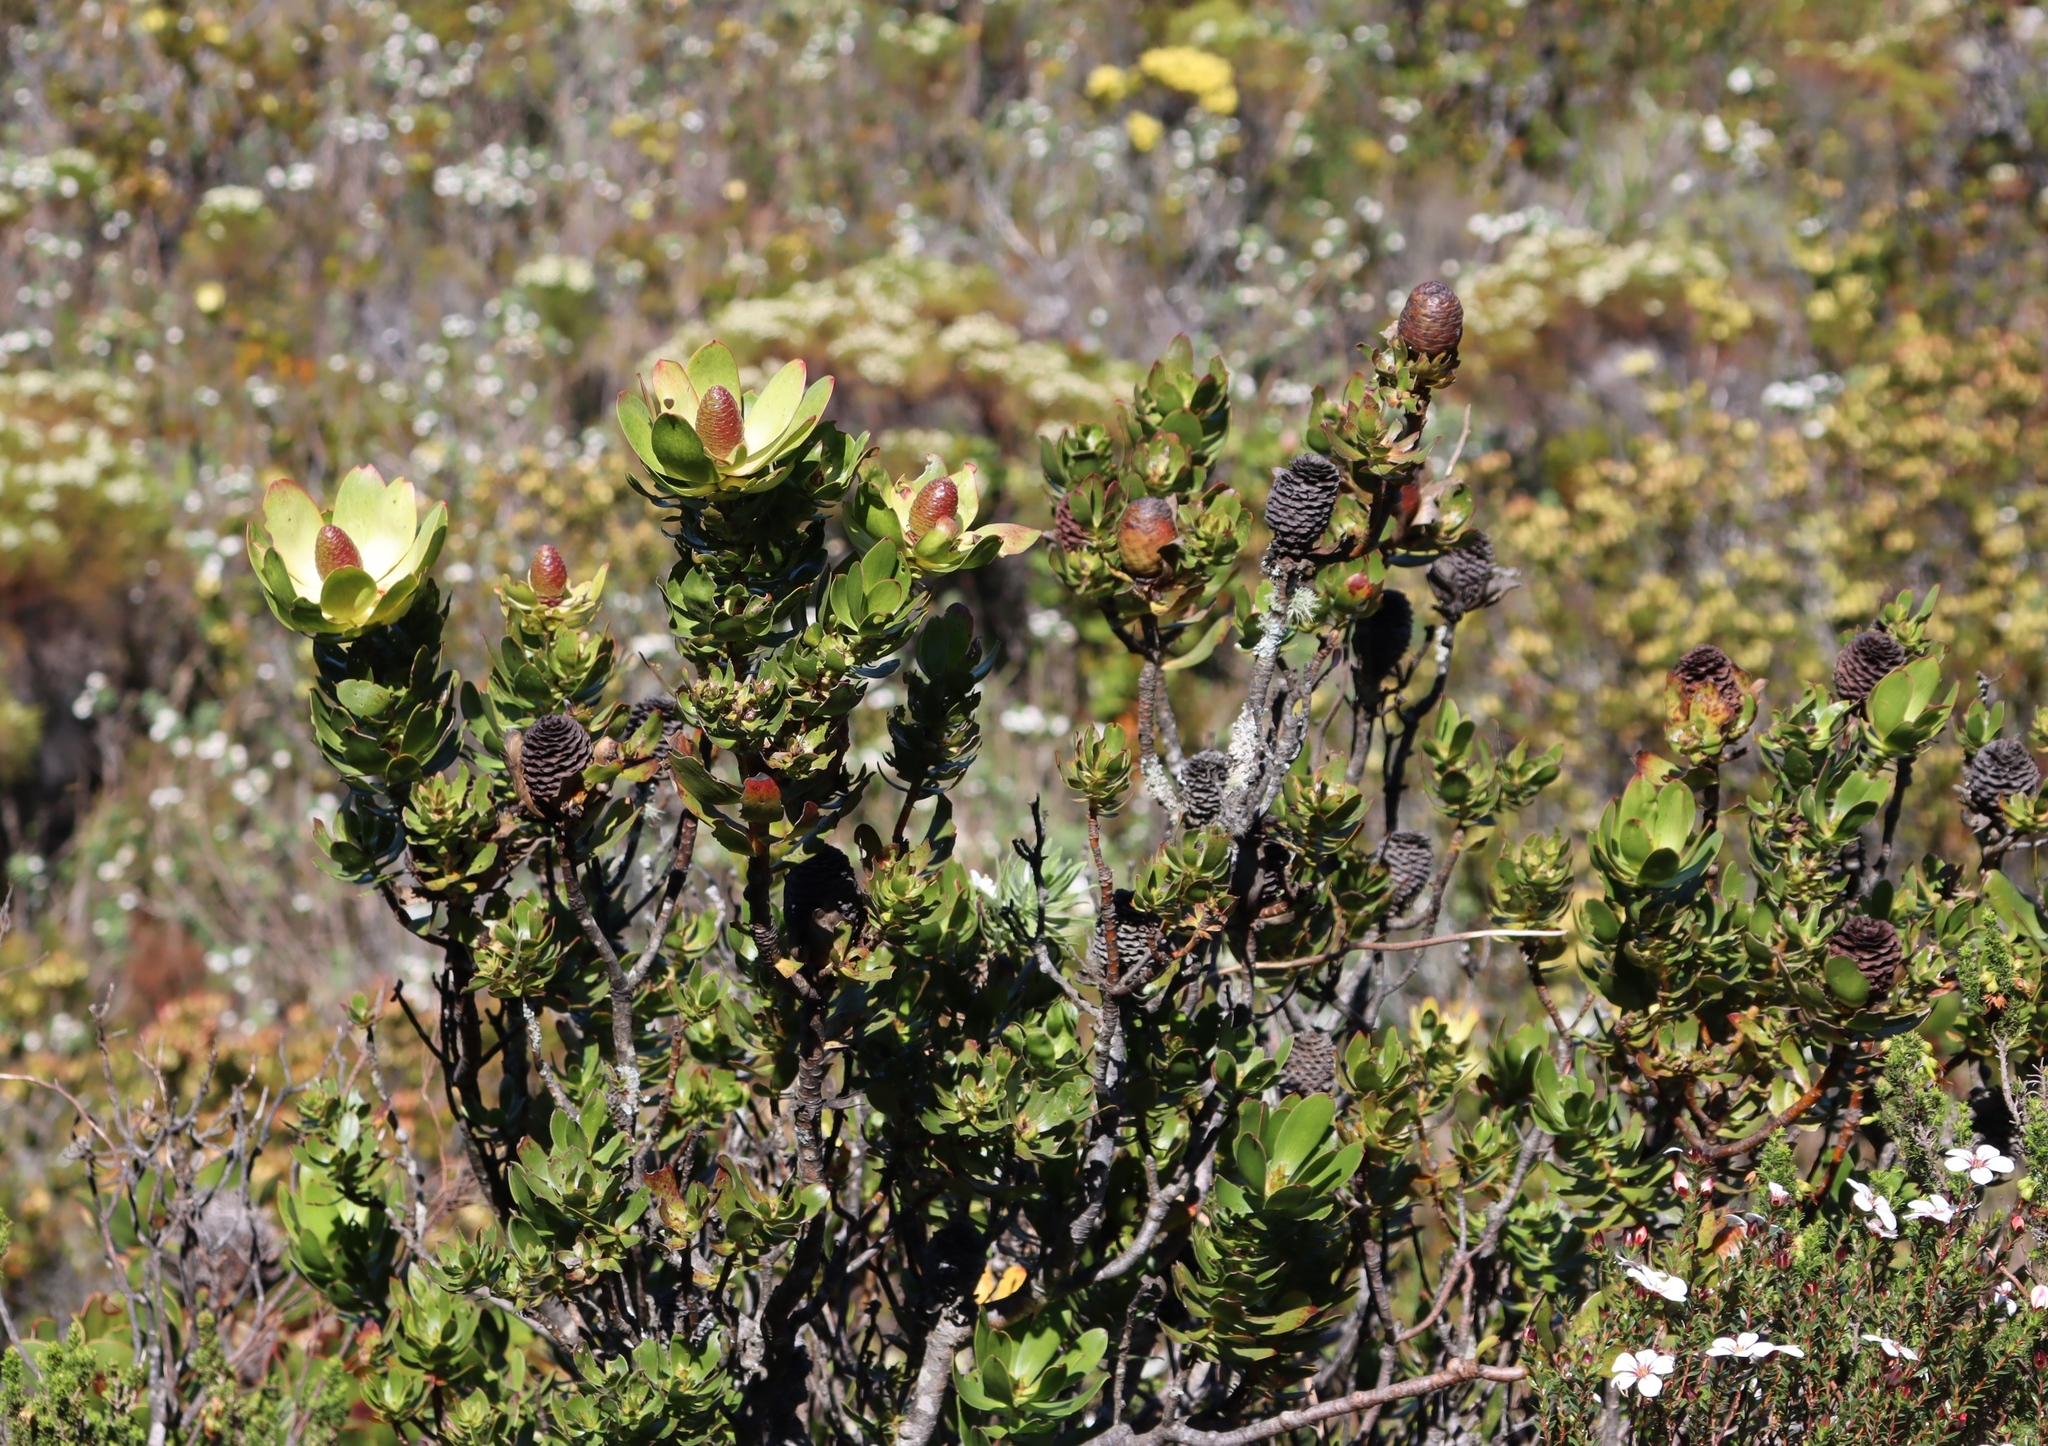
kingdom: Plantae
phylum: Tracheophyta
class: Magnoliopsida
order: Proteales
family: Proteaceae
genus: Leucadendron
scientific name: Leucadendron strobilinum
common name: Mountain rose
